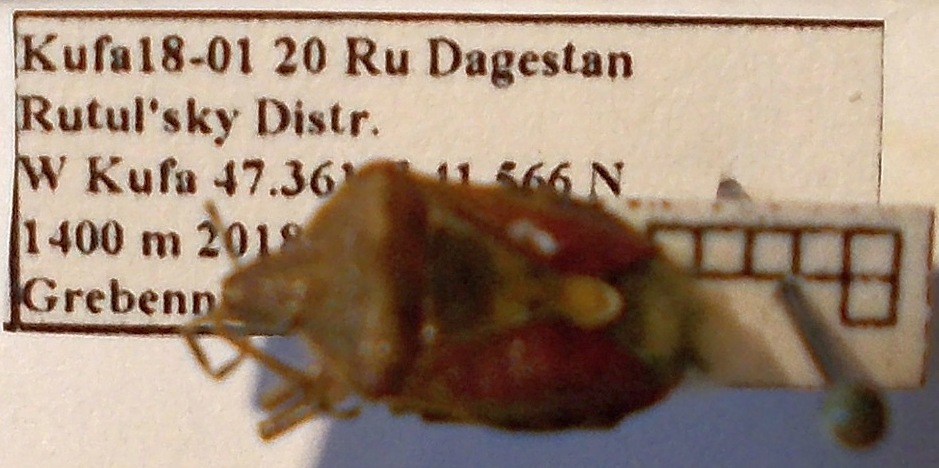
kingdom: Animalia
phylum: Arthropoda
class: Insecta
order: Hemiptera
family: Pentatomidae
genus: Dolycoris
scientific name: Dolycoris baccarum
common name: Sloe bug
